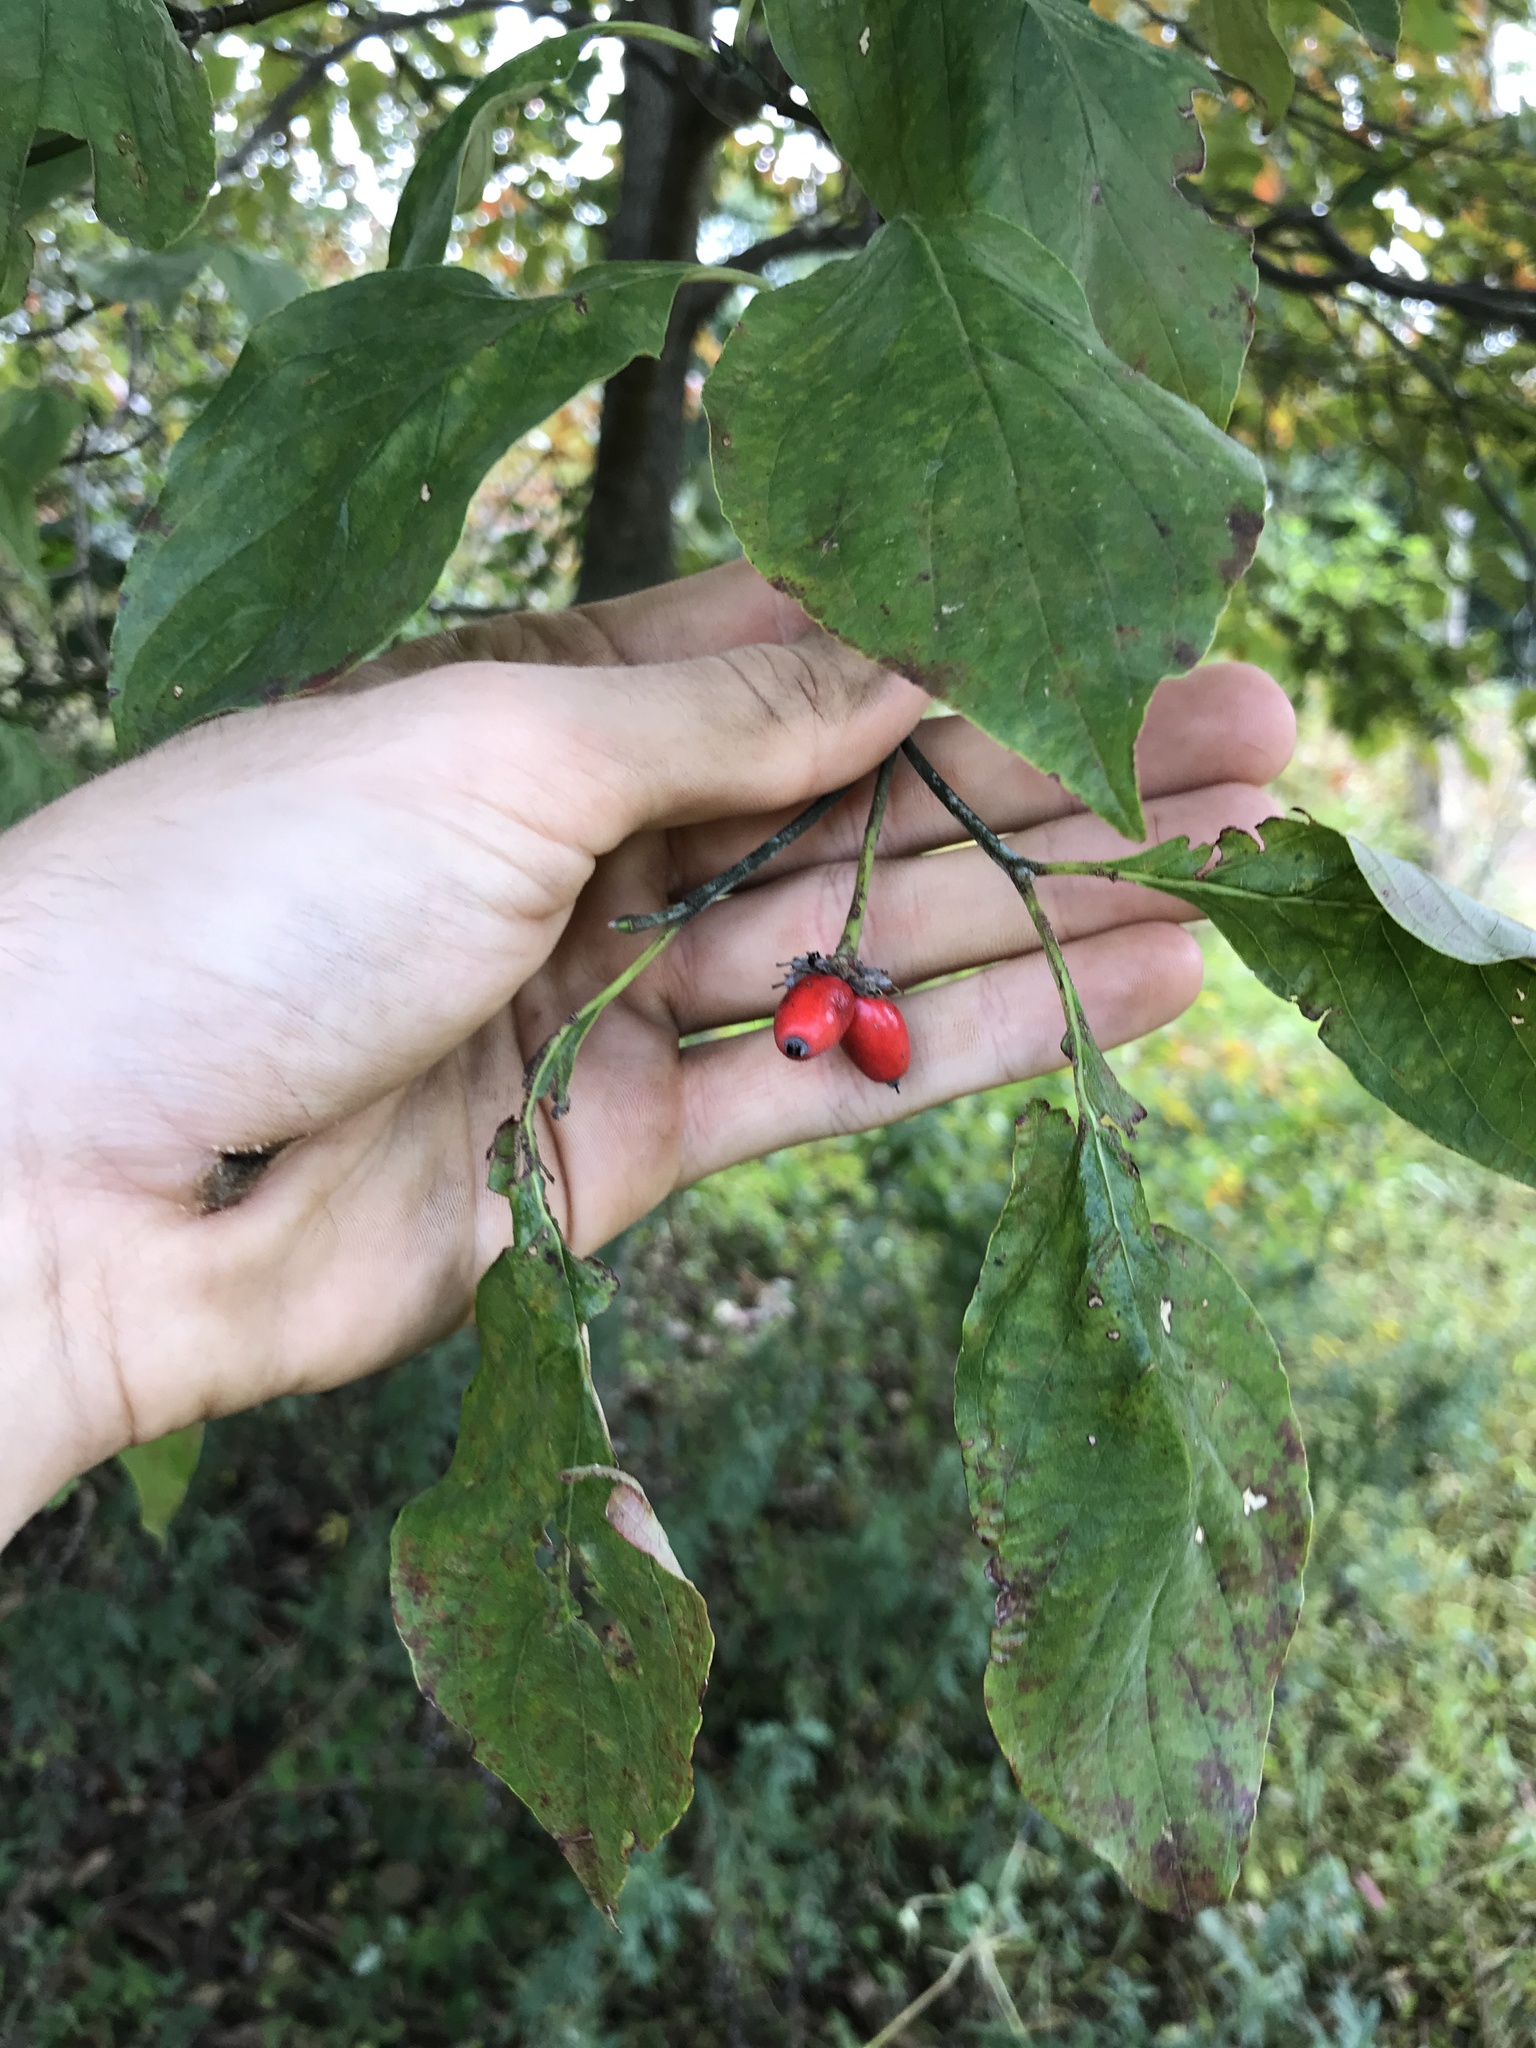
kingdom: Plantae
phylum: Tracheophyta
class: Magnoliopsida
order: Cornales
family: Cornaceae
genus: Cornus
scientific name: Cornus florida
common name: Flowering dogwood
